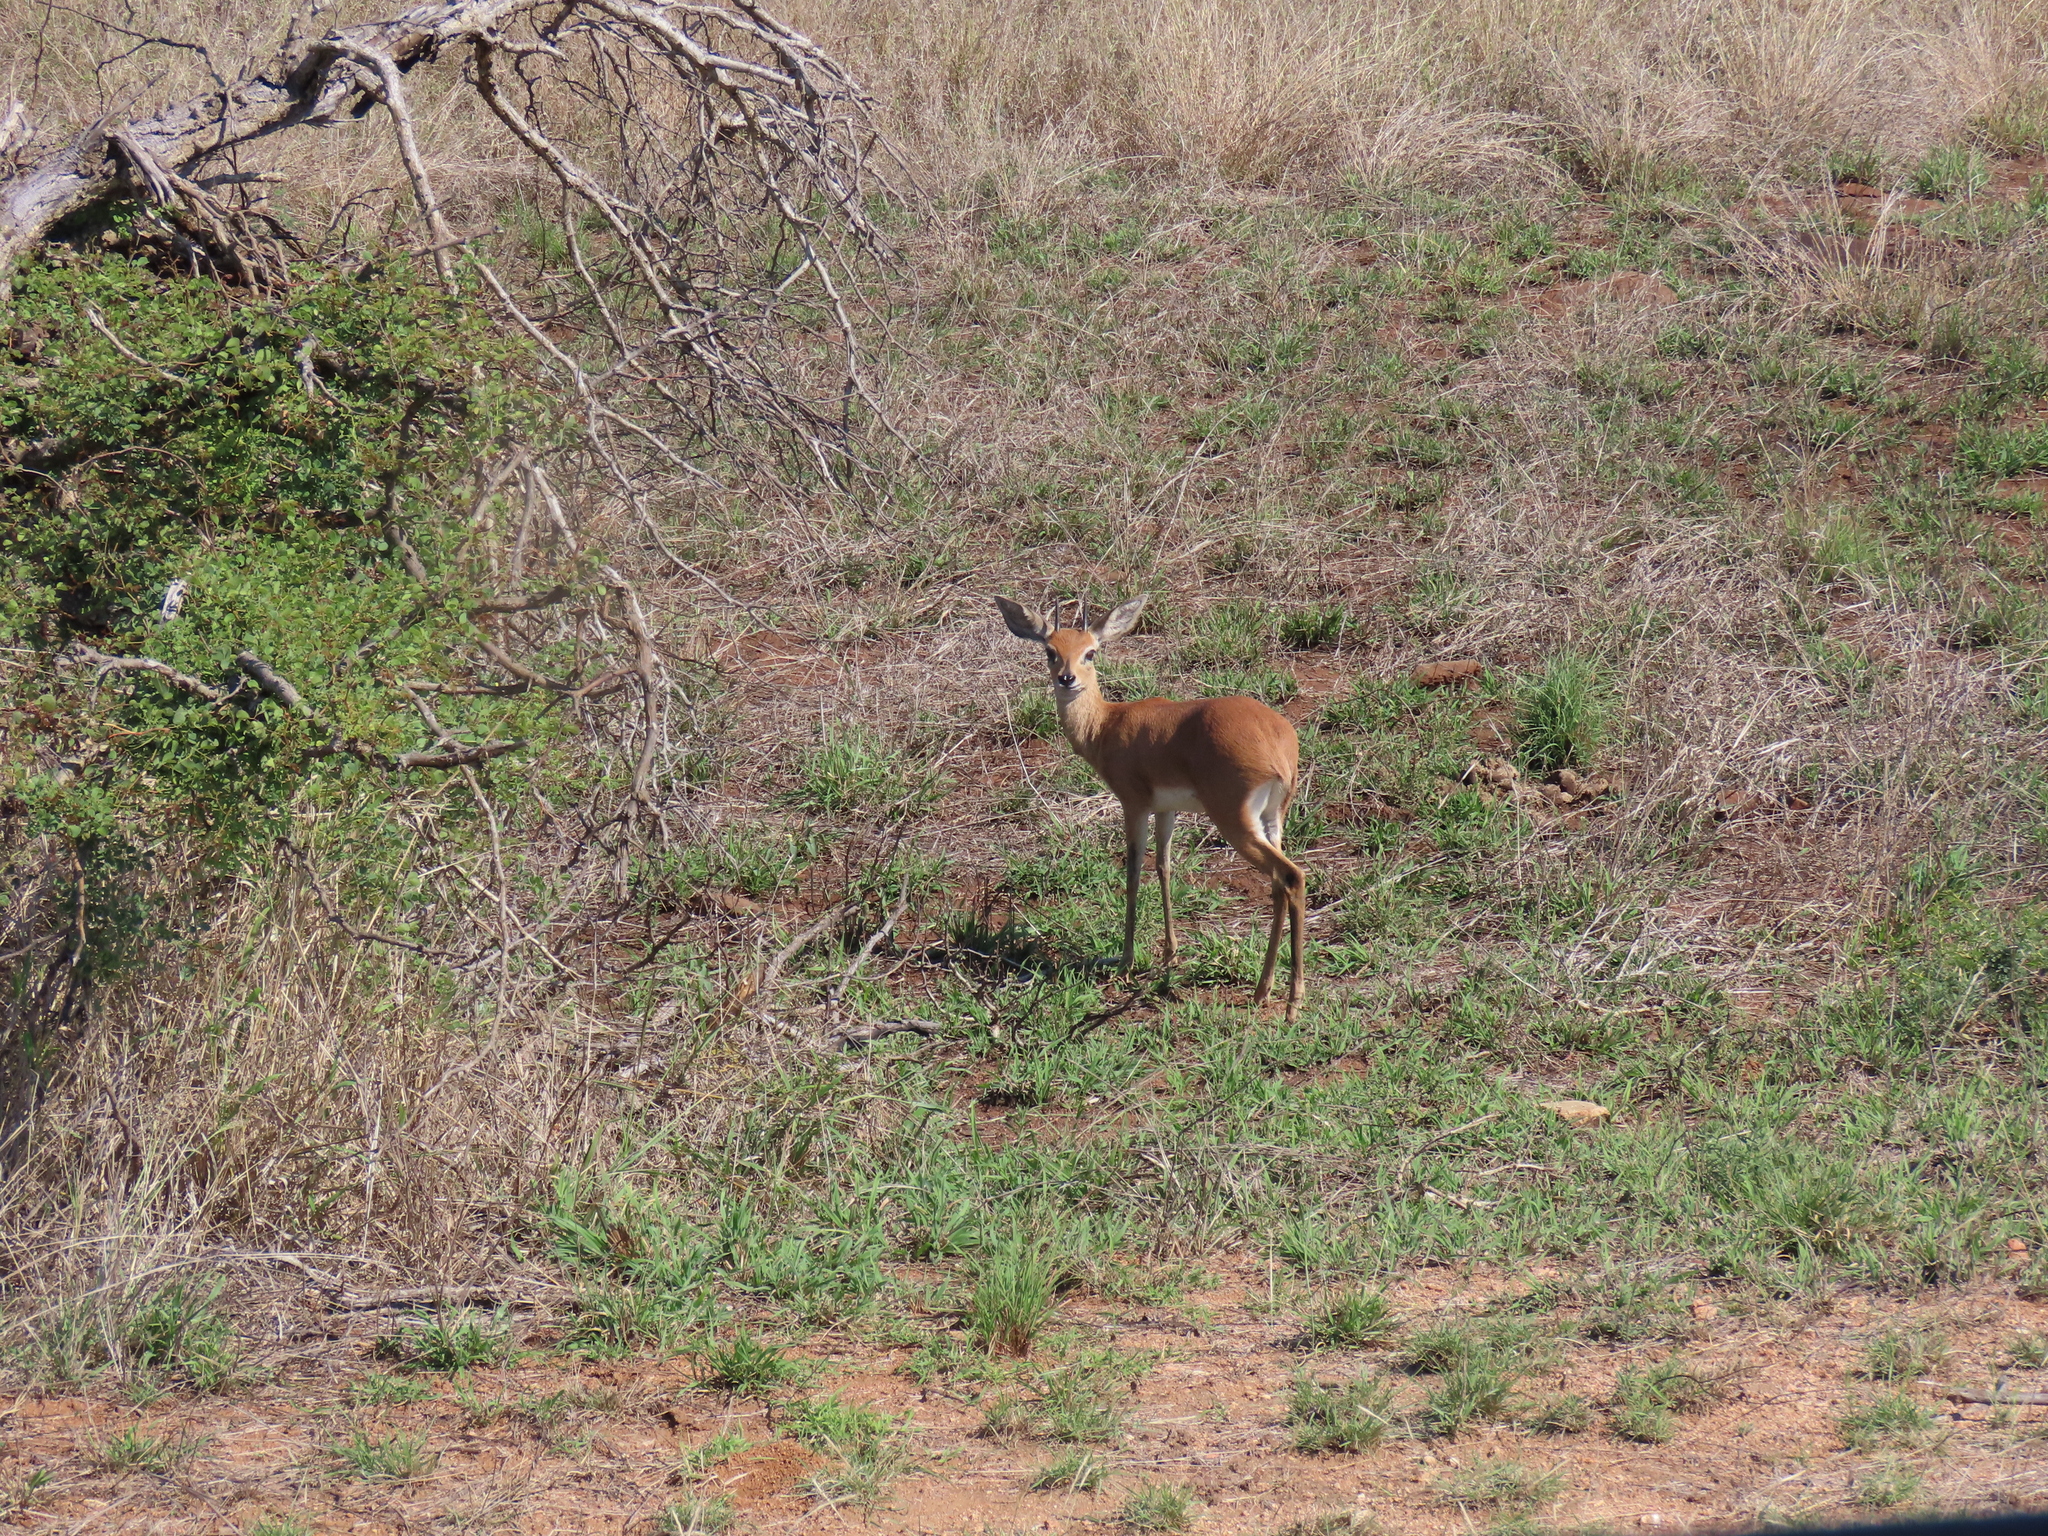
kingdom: Animalia
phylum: Chordata
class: Mammalia
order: Artiodactyla
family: Bovidae
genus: Raphicerus
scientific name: Raphicerus campestris
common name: Steenbok
